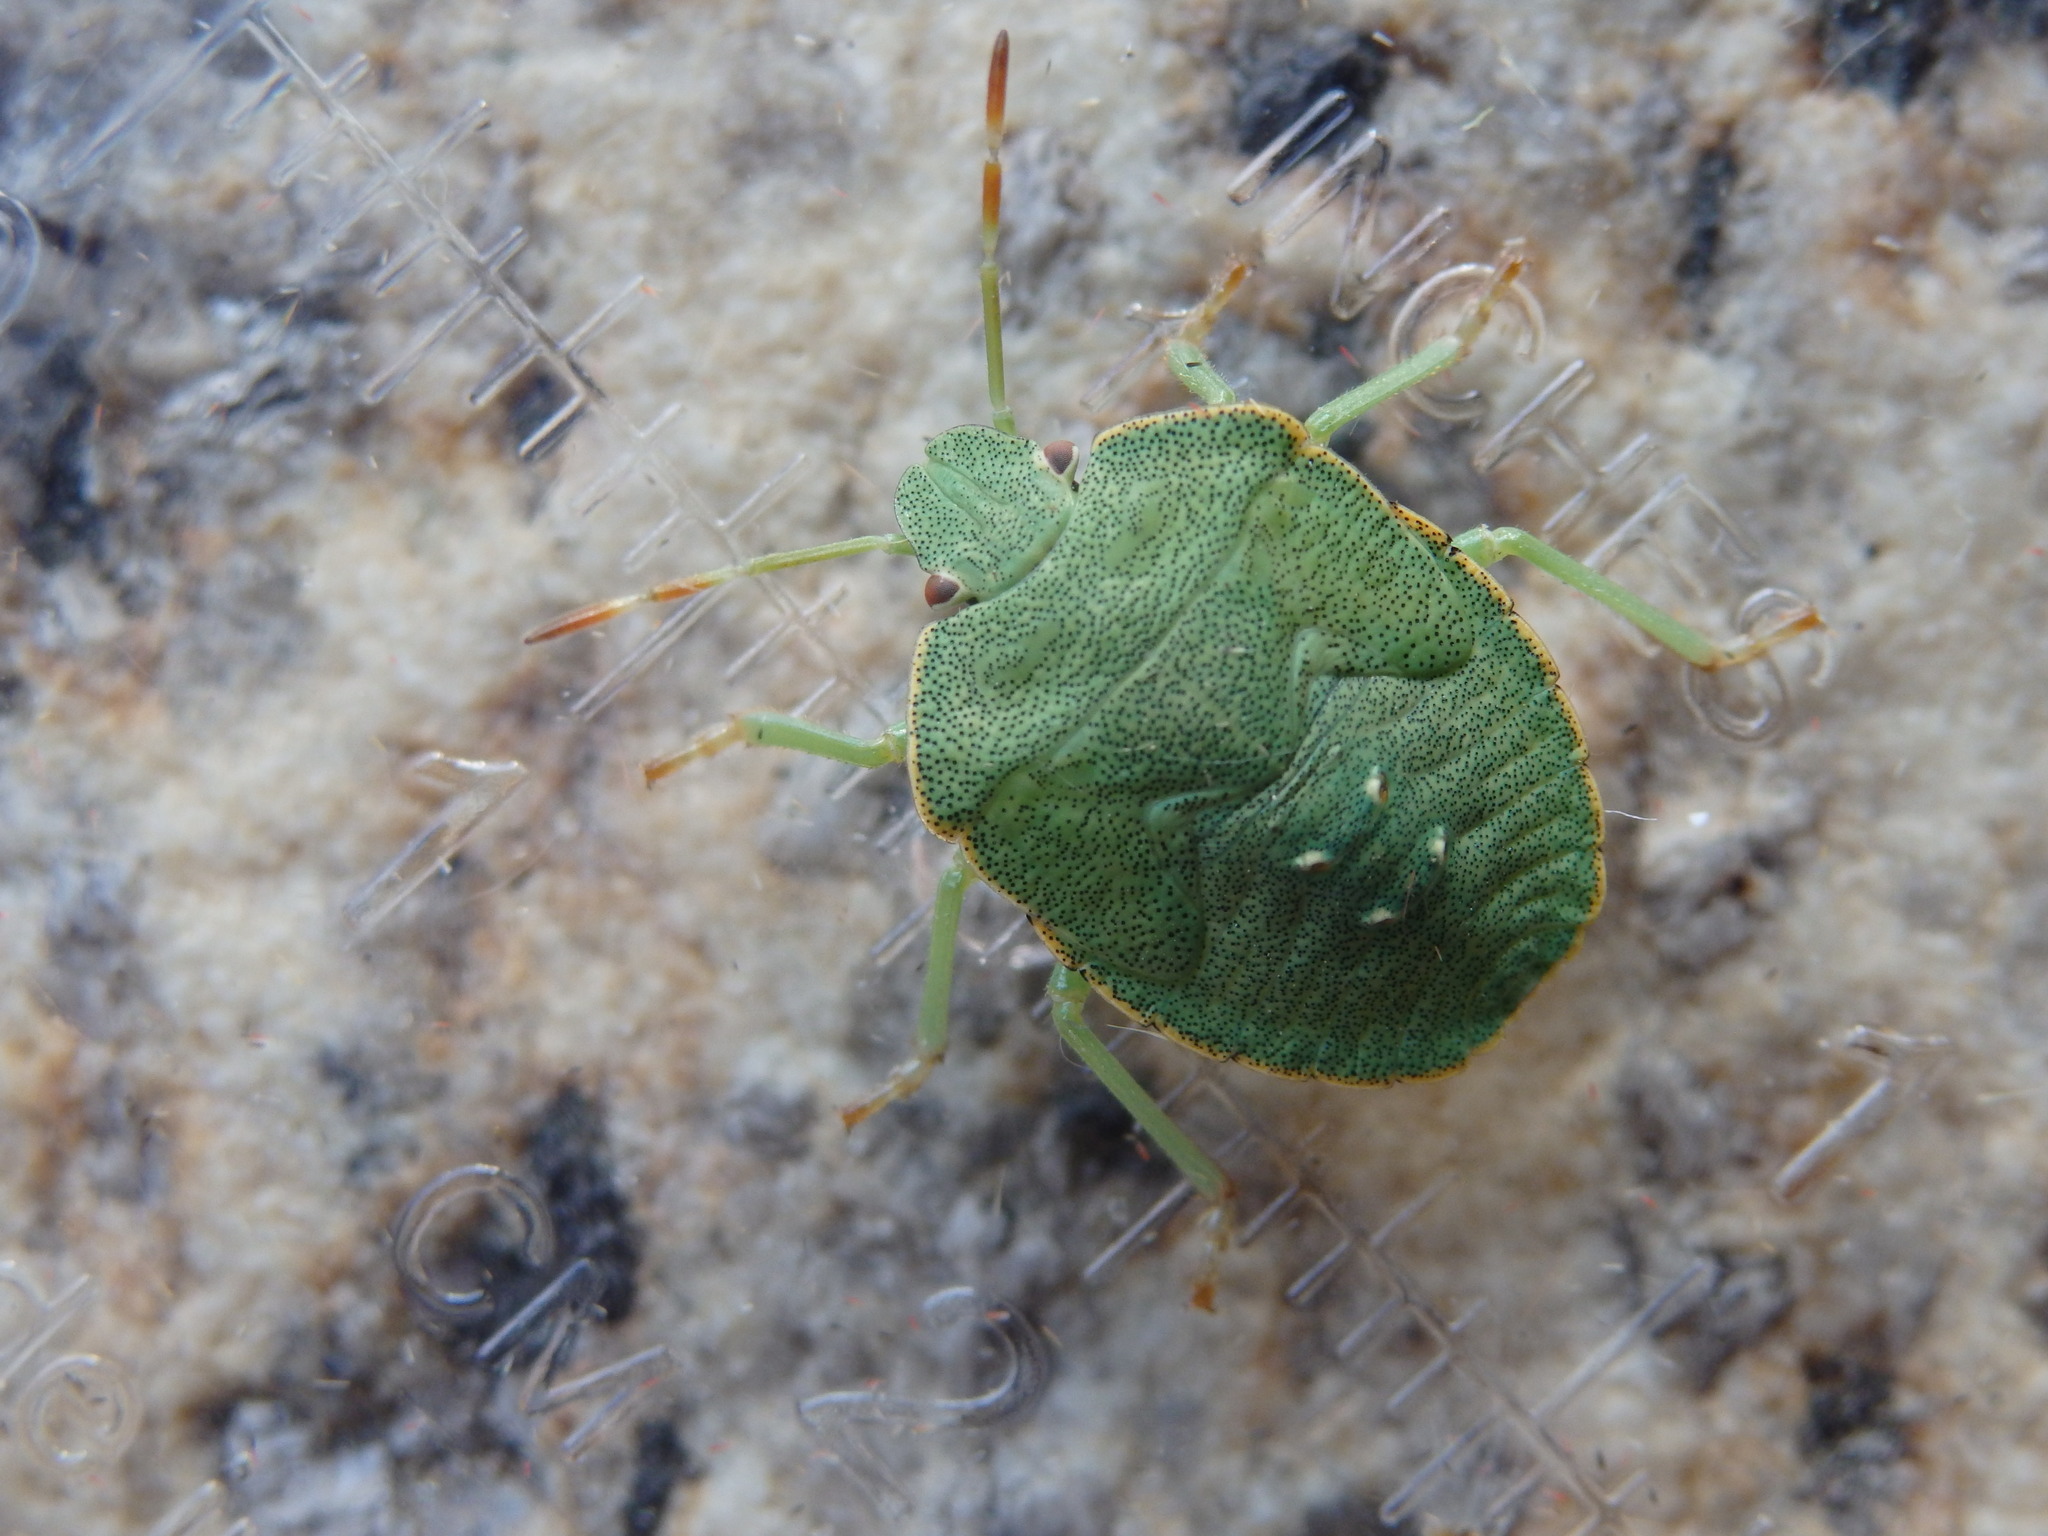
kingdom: Animalia
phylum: Arthropoda
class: Insecta
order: Hemiptera
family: Pentatomidae
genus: Palomena
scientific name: Palomena prasina
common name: Green shieldbug
